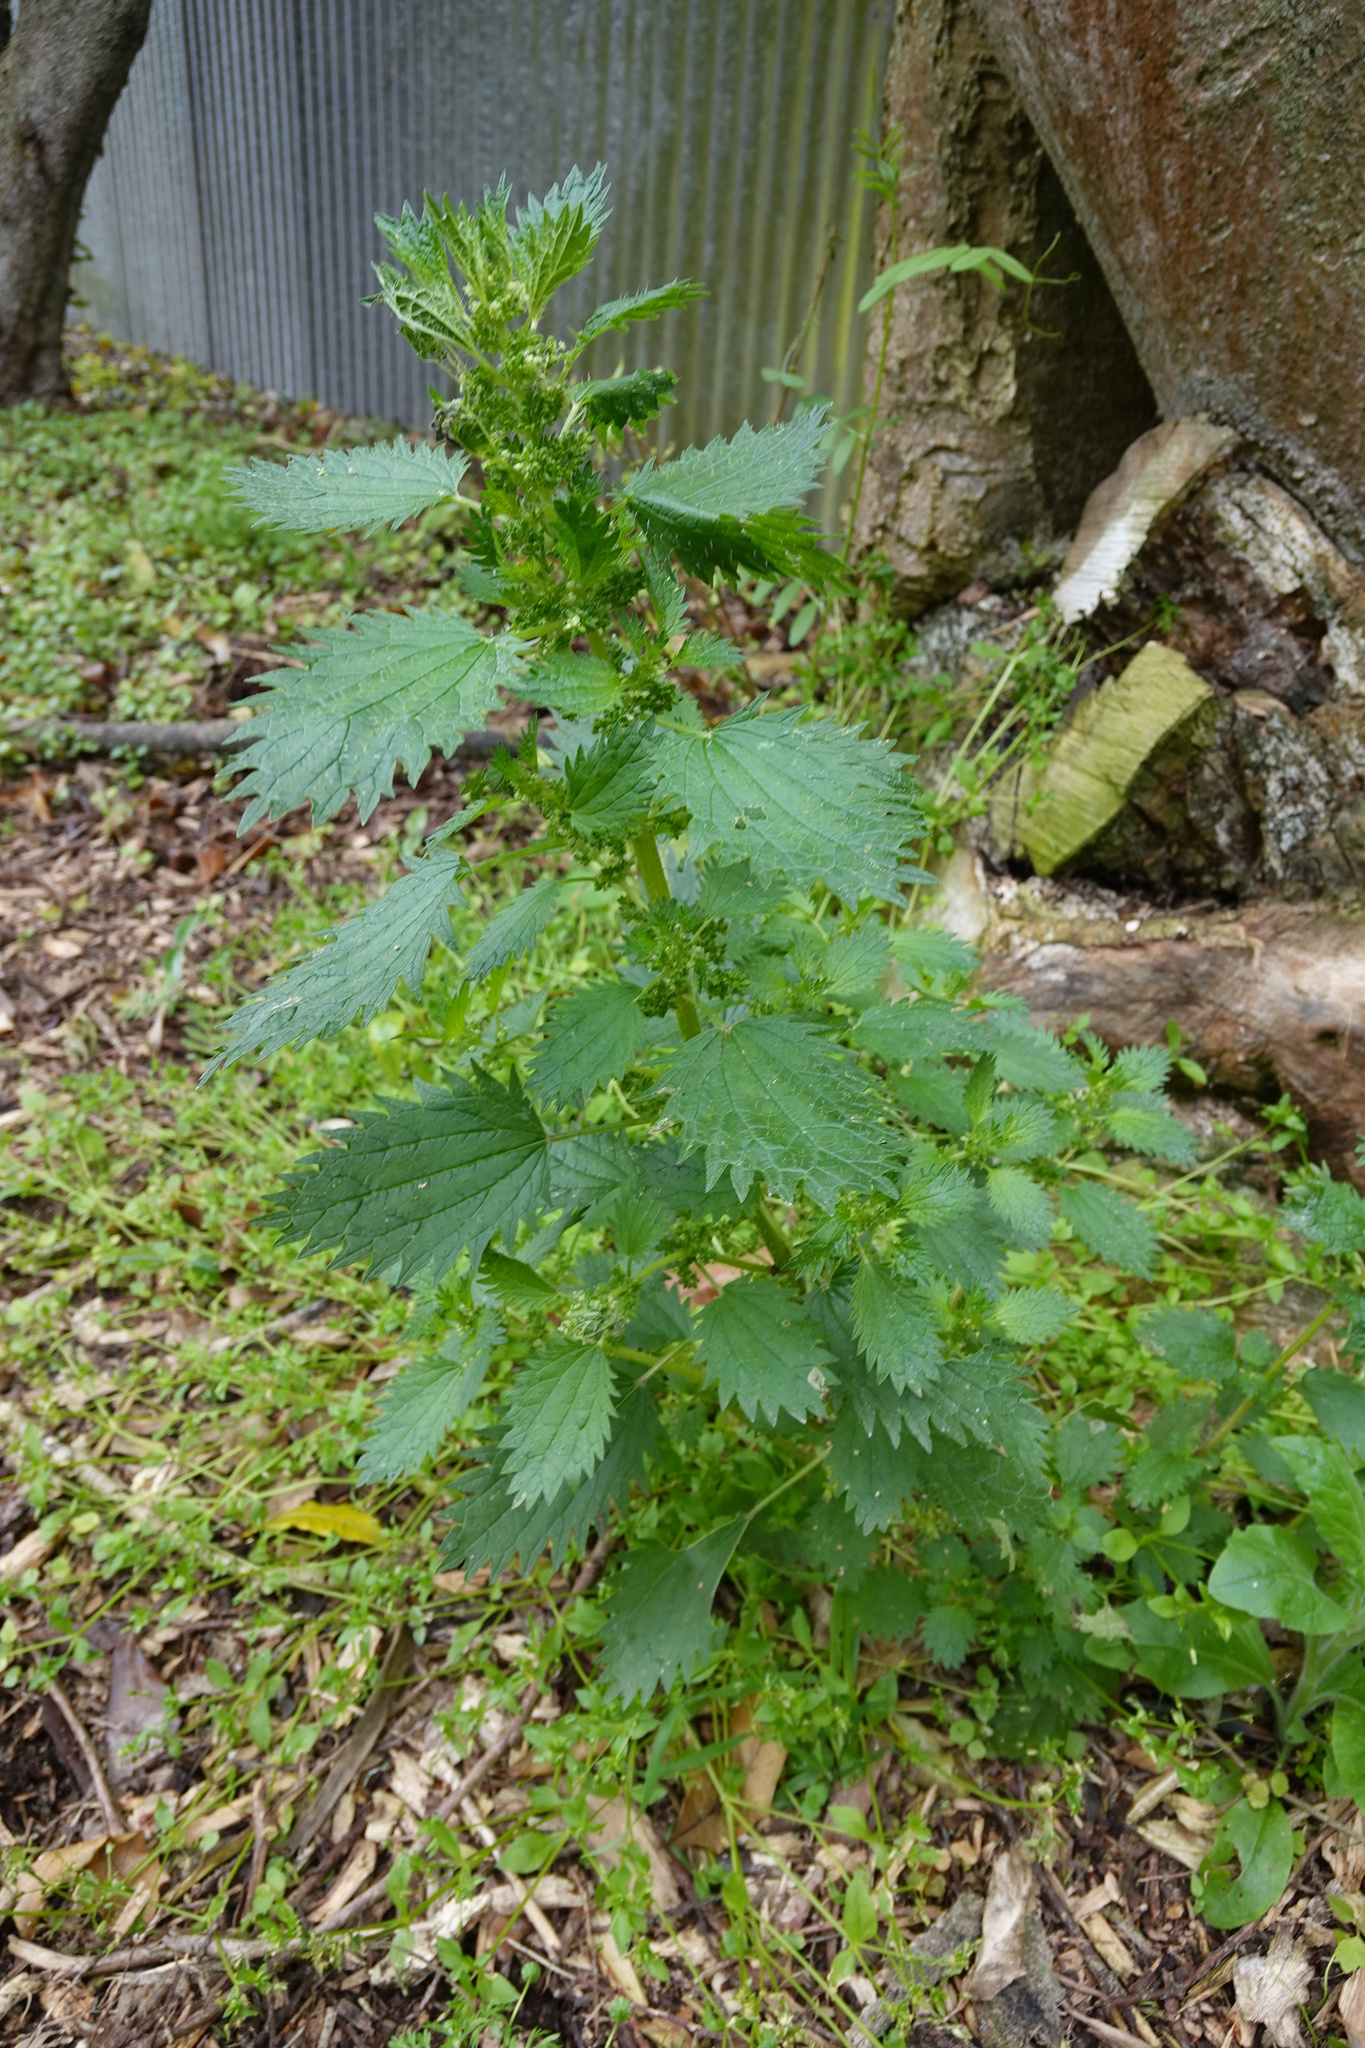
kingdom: Plantae
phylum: Tracheophyta
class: Magnoliopsida
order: Rosales
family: Urticaceae
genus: Urtica
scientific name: Urtica urens
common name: Dwarf nettle
